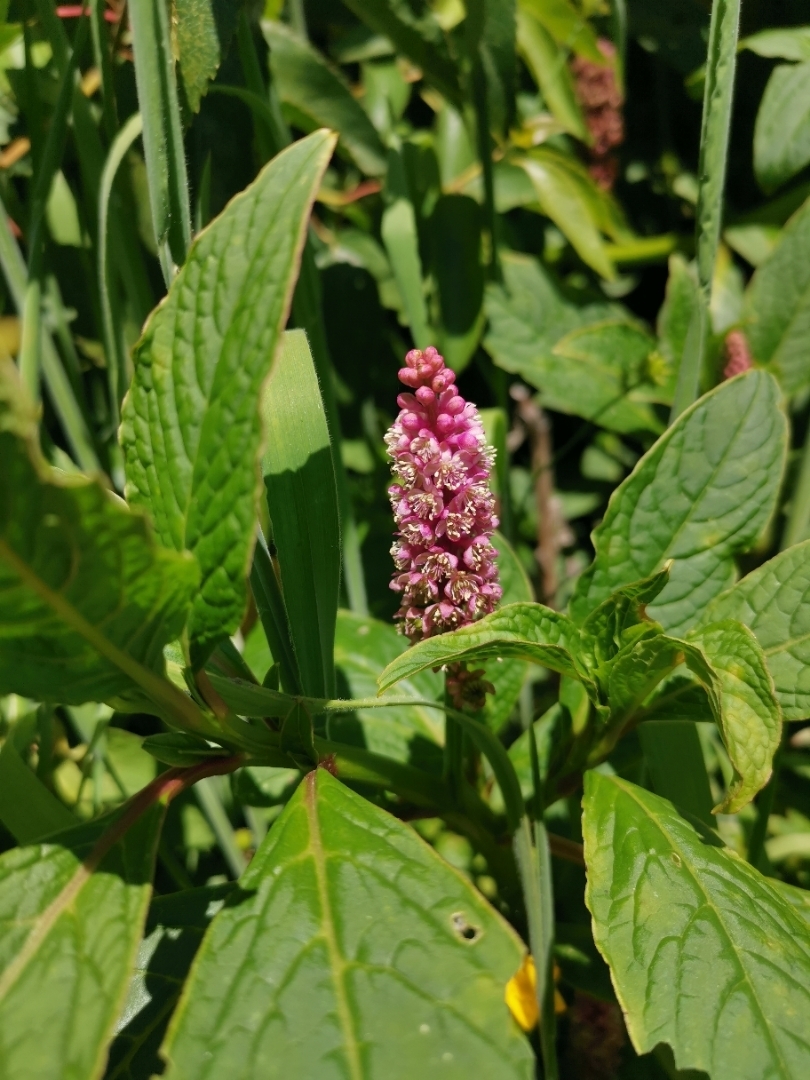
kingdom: Plantae
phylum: Tracheophyta
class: Magnoliopsida
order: Caryophyllales
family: Phytolaccaceae
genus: Phytolacca
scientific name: Phytolacca bogotensis
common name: Southern pokeweed
